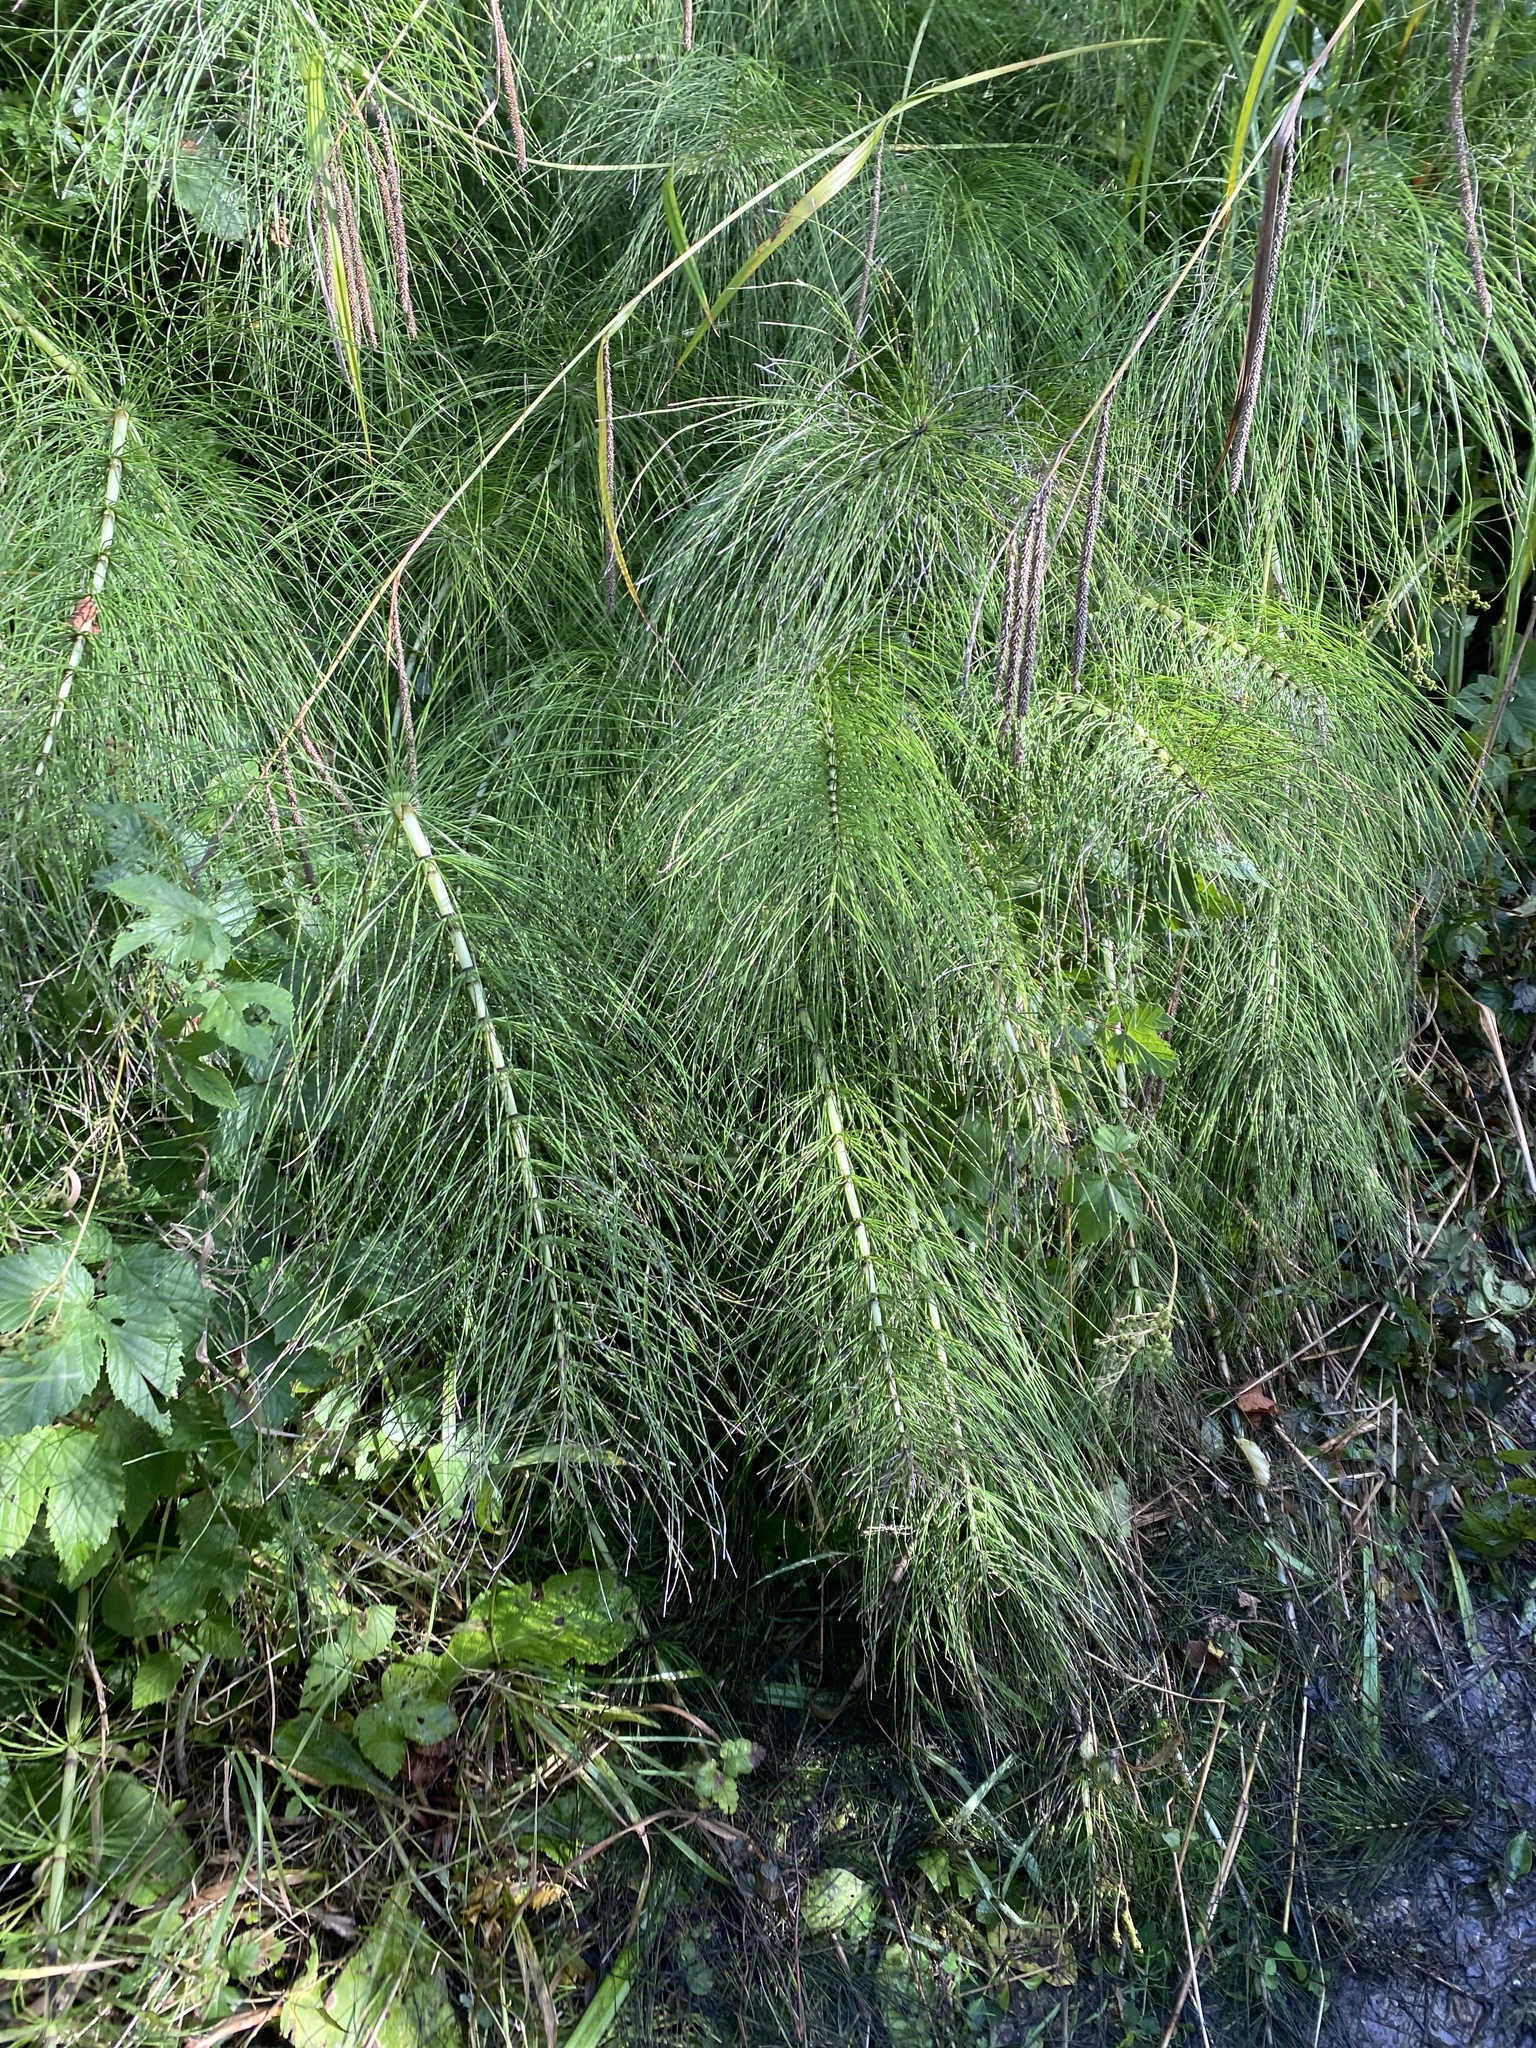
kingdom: Plantae
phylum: Tracheophyta
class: Polypodiopsida
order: Equisetales
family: Equisetaceae
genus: Equisetum
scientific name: Equisetum telmateia
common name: Great horsetail
